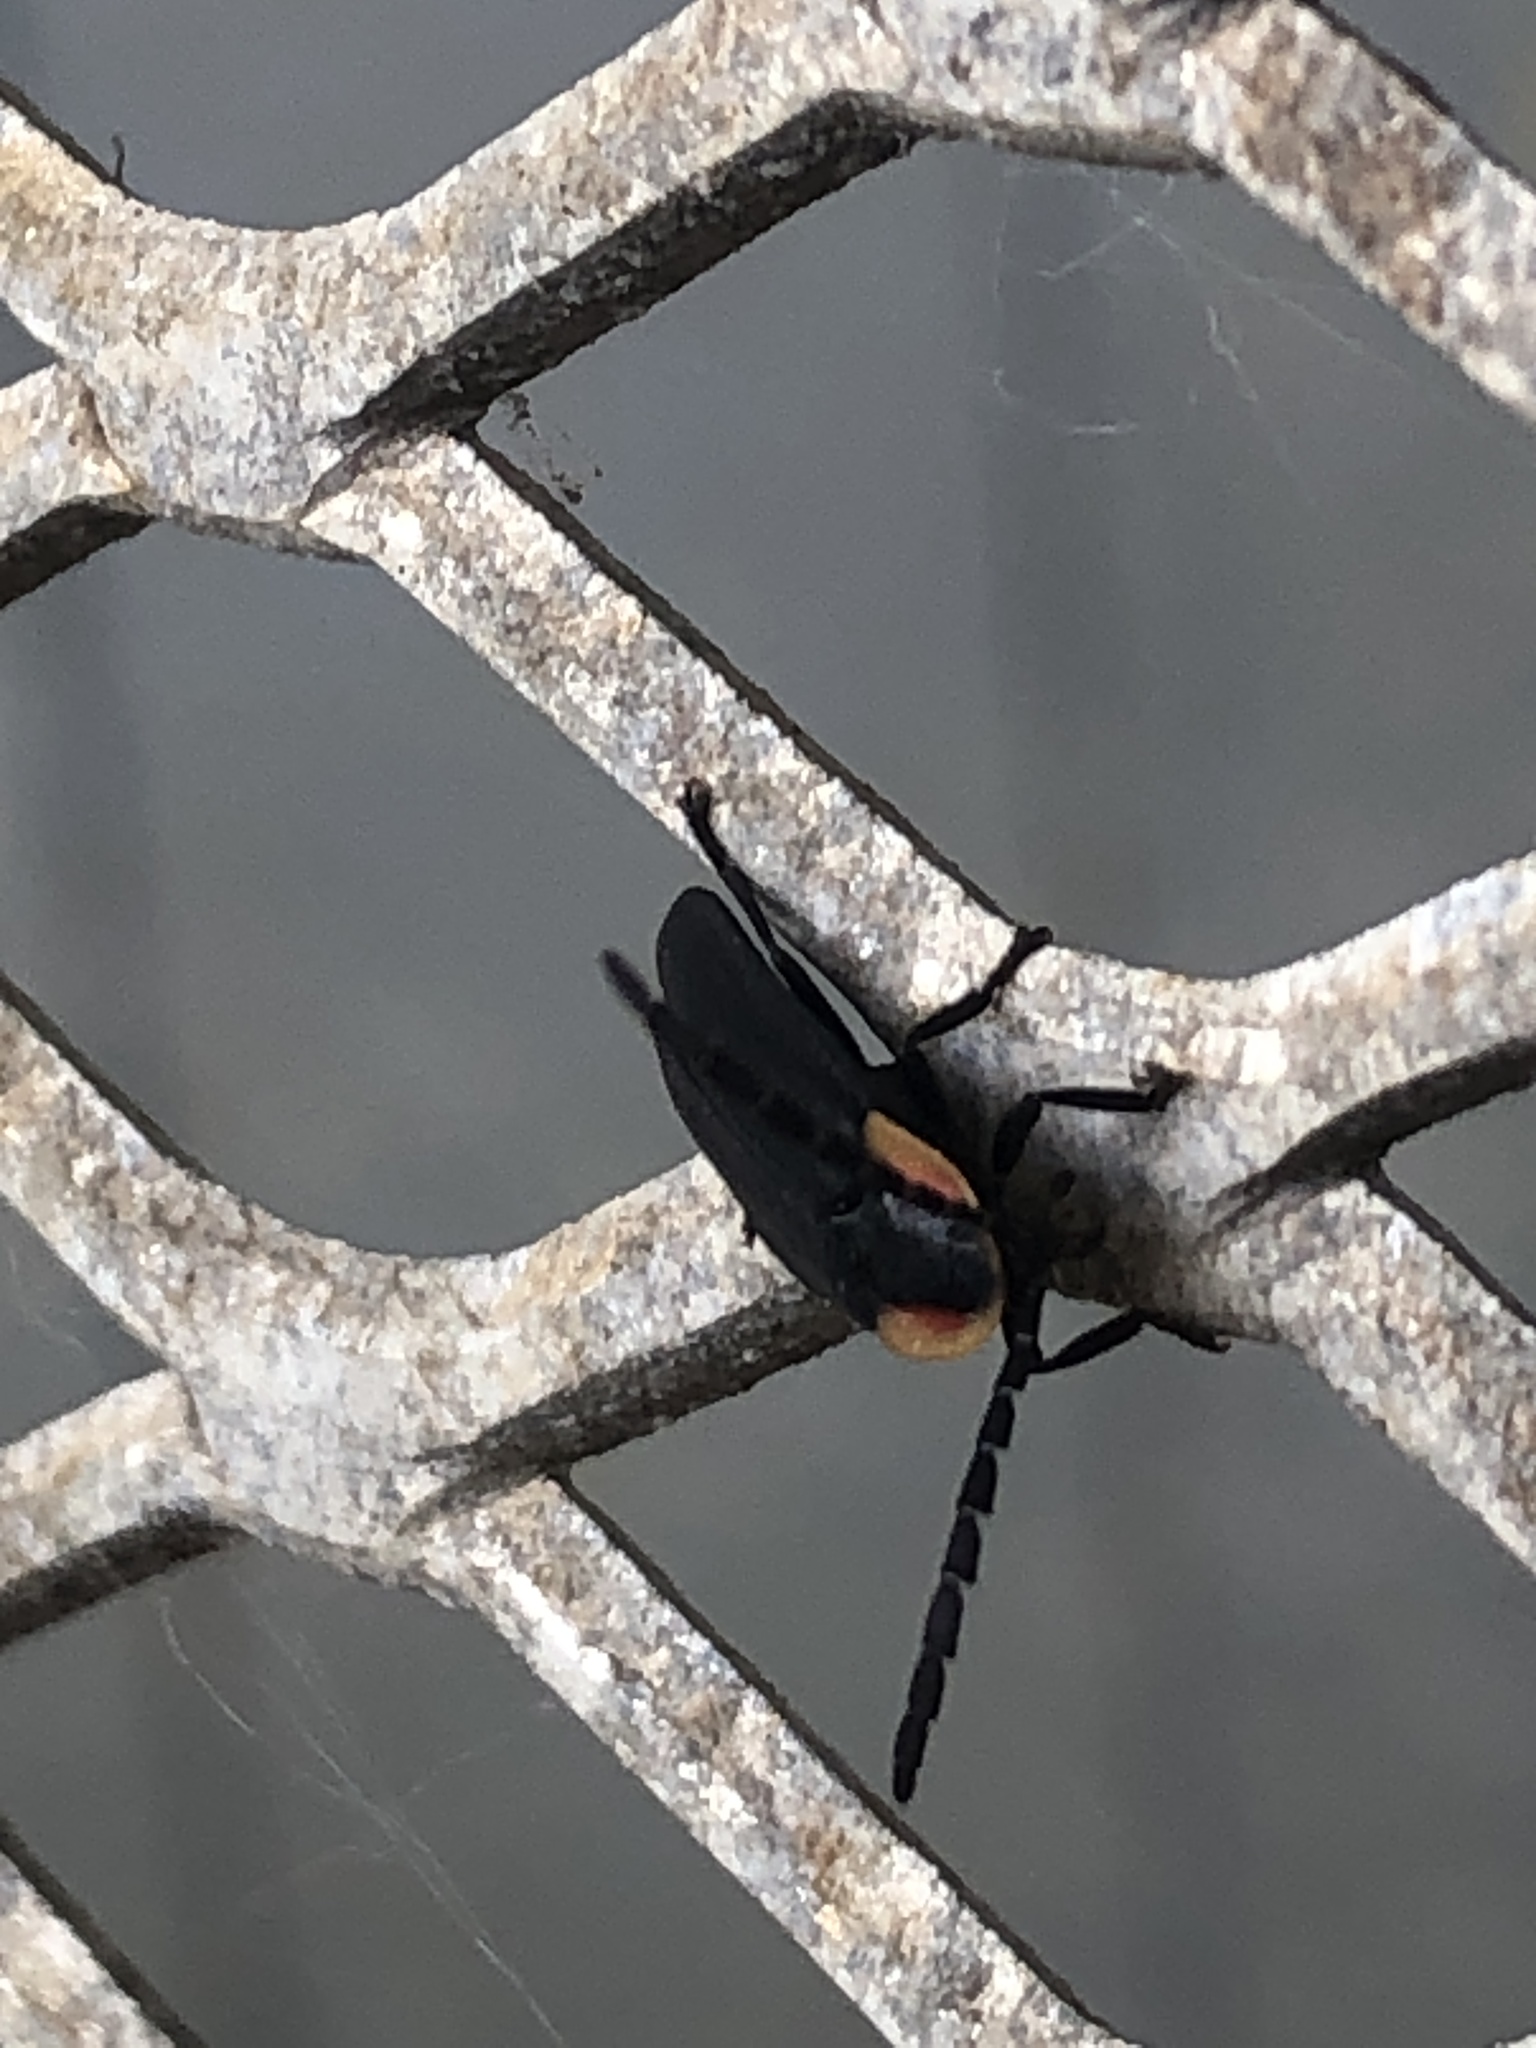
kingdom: Animalia
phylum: Arthropoda
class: Insecta
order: Coleoptera
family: Lampyridae
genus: Lucidota
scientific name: Lucidota atra
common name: Black firefly
